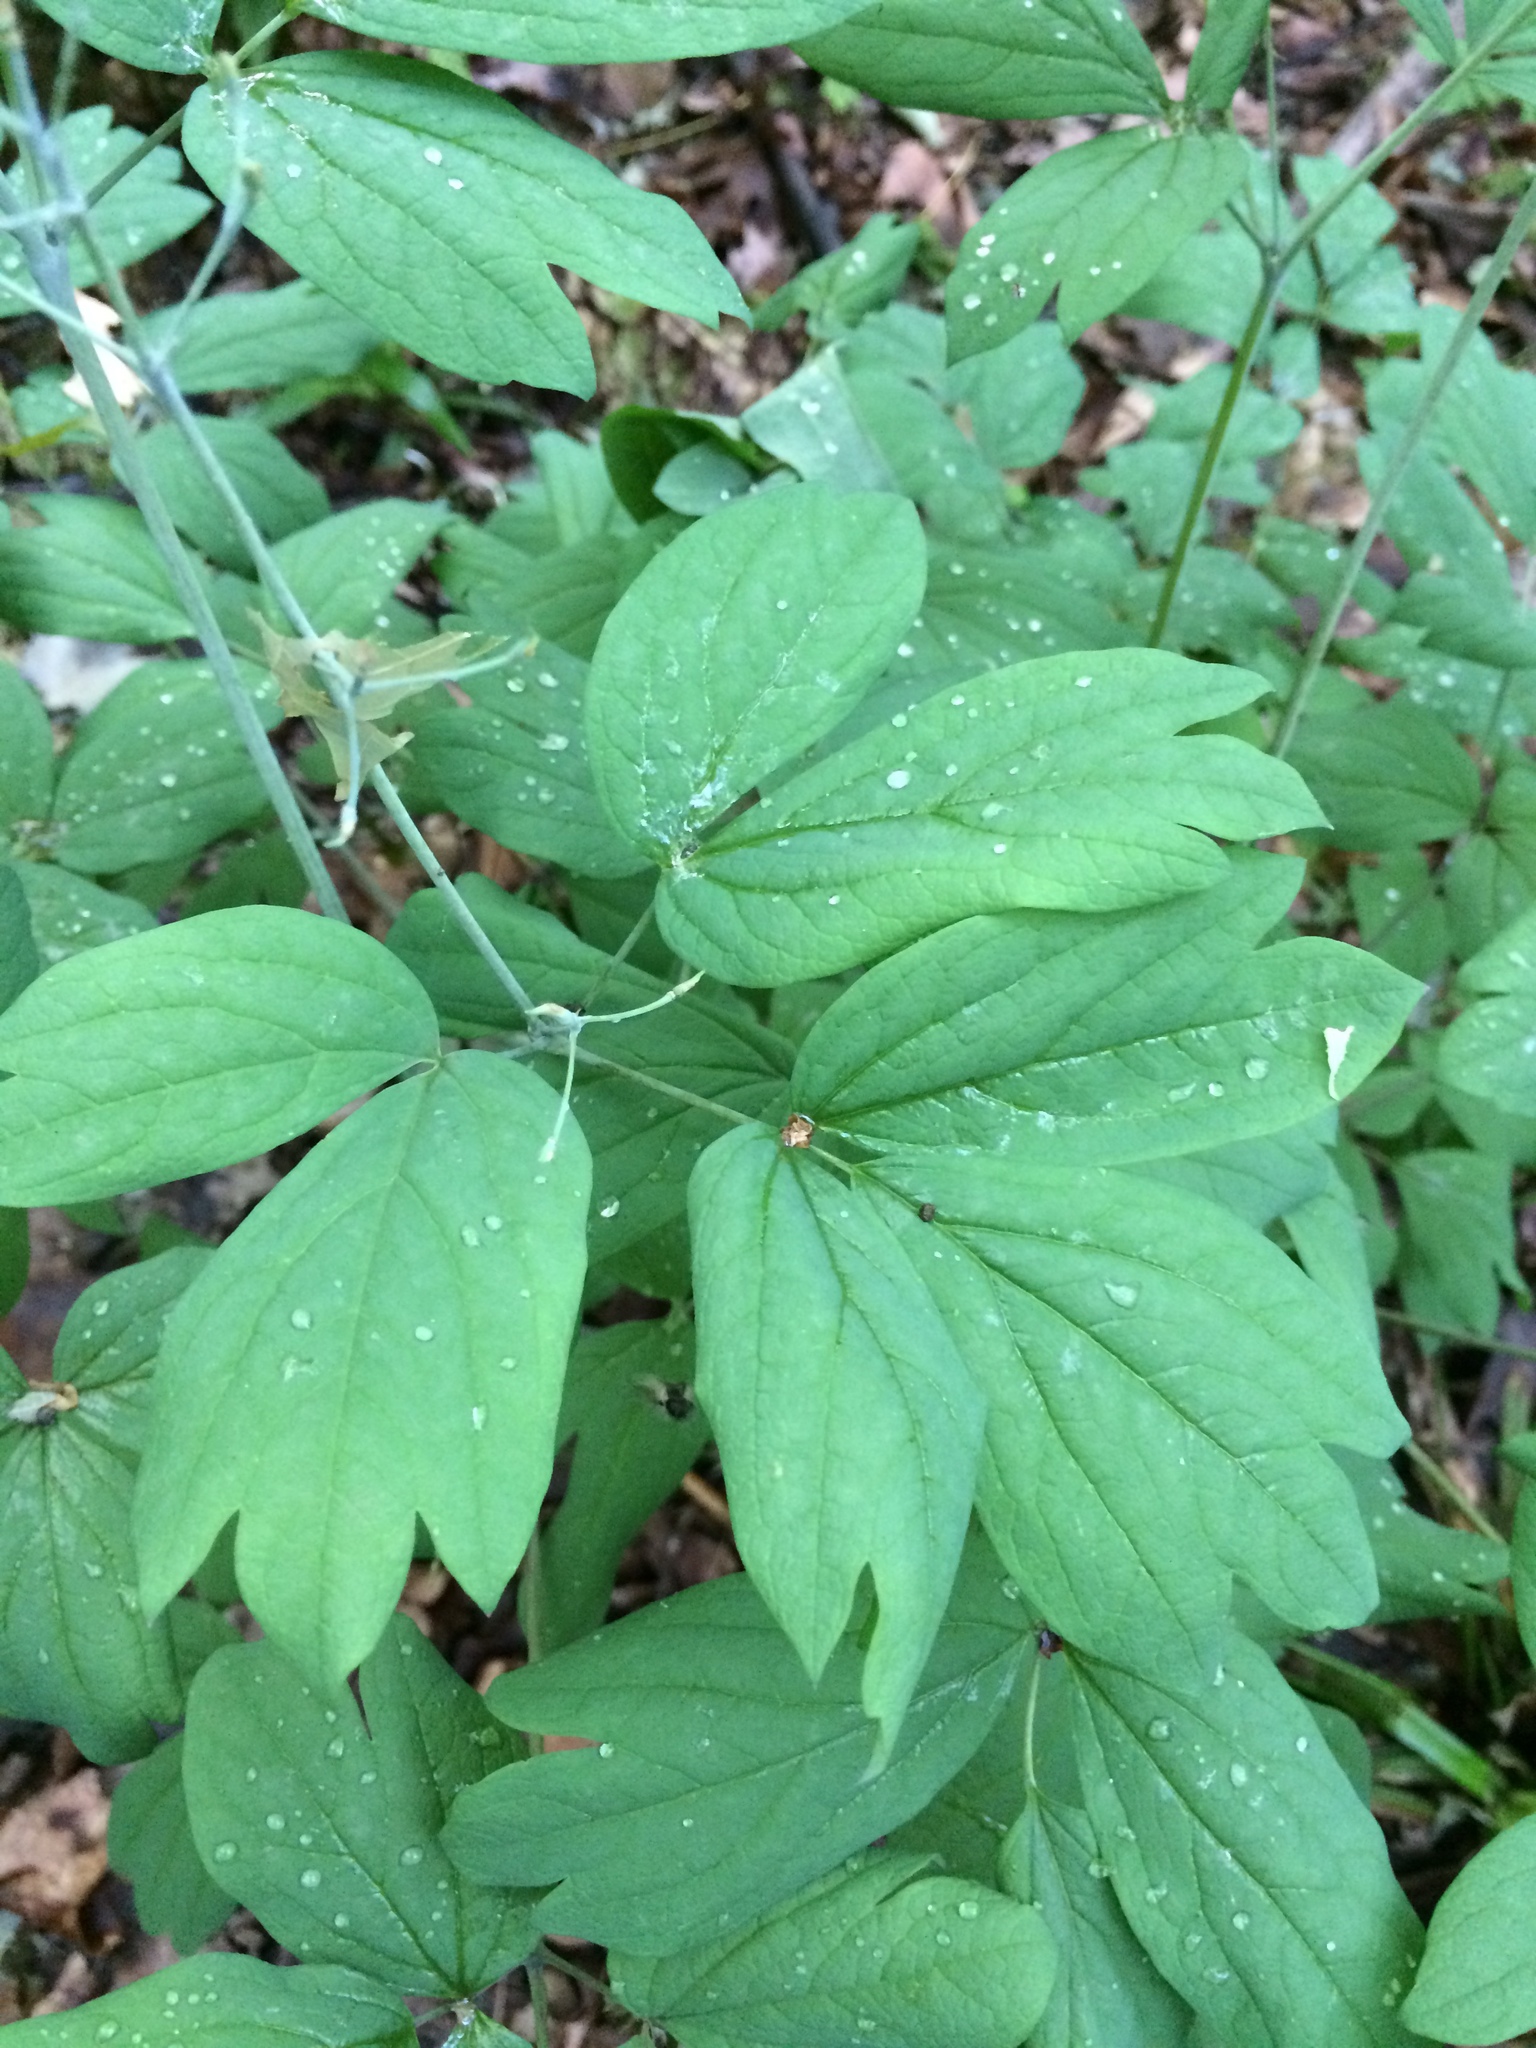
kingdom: Plantae
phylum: Tracheophyta
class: Magnoliopsida
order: Ranunculales
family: Berberidaceae
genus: Caulophyllum
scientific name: Caulophyllum thalictroides
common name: Blue cohosh
